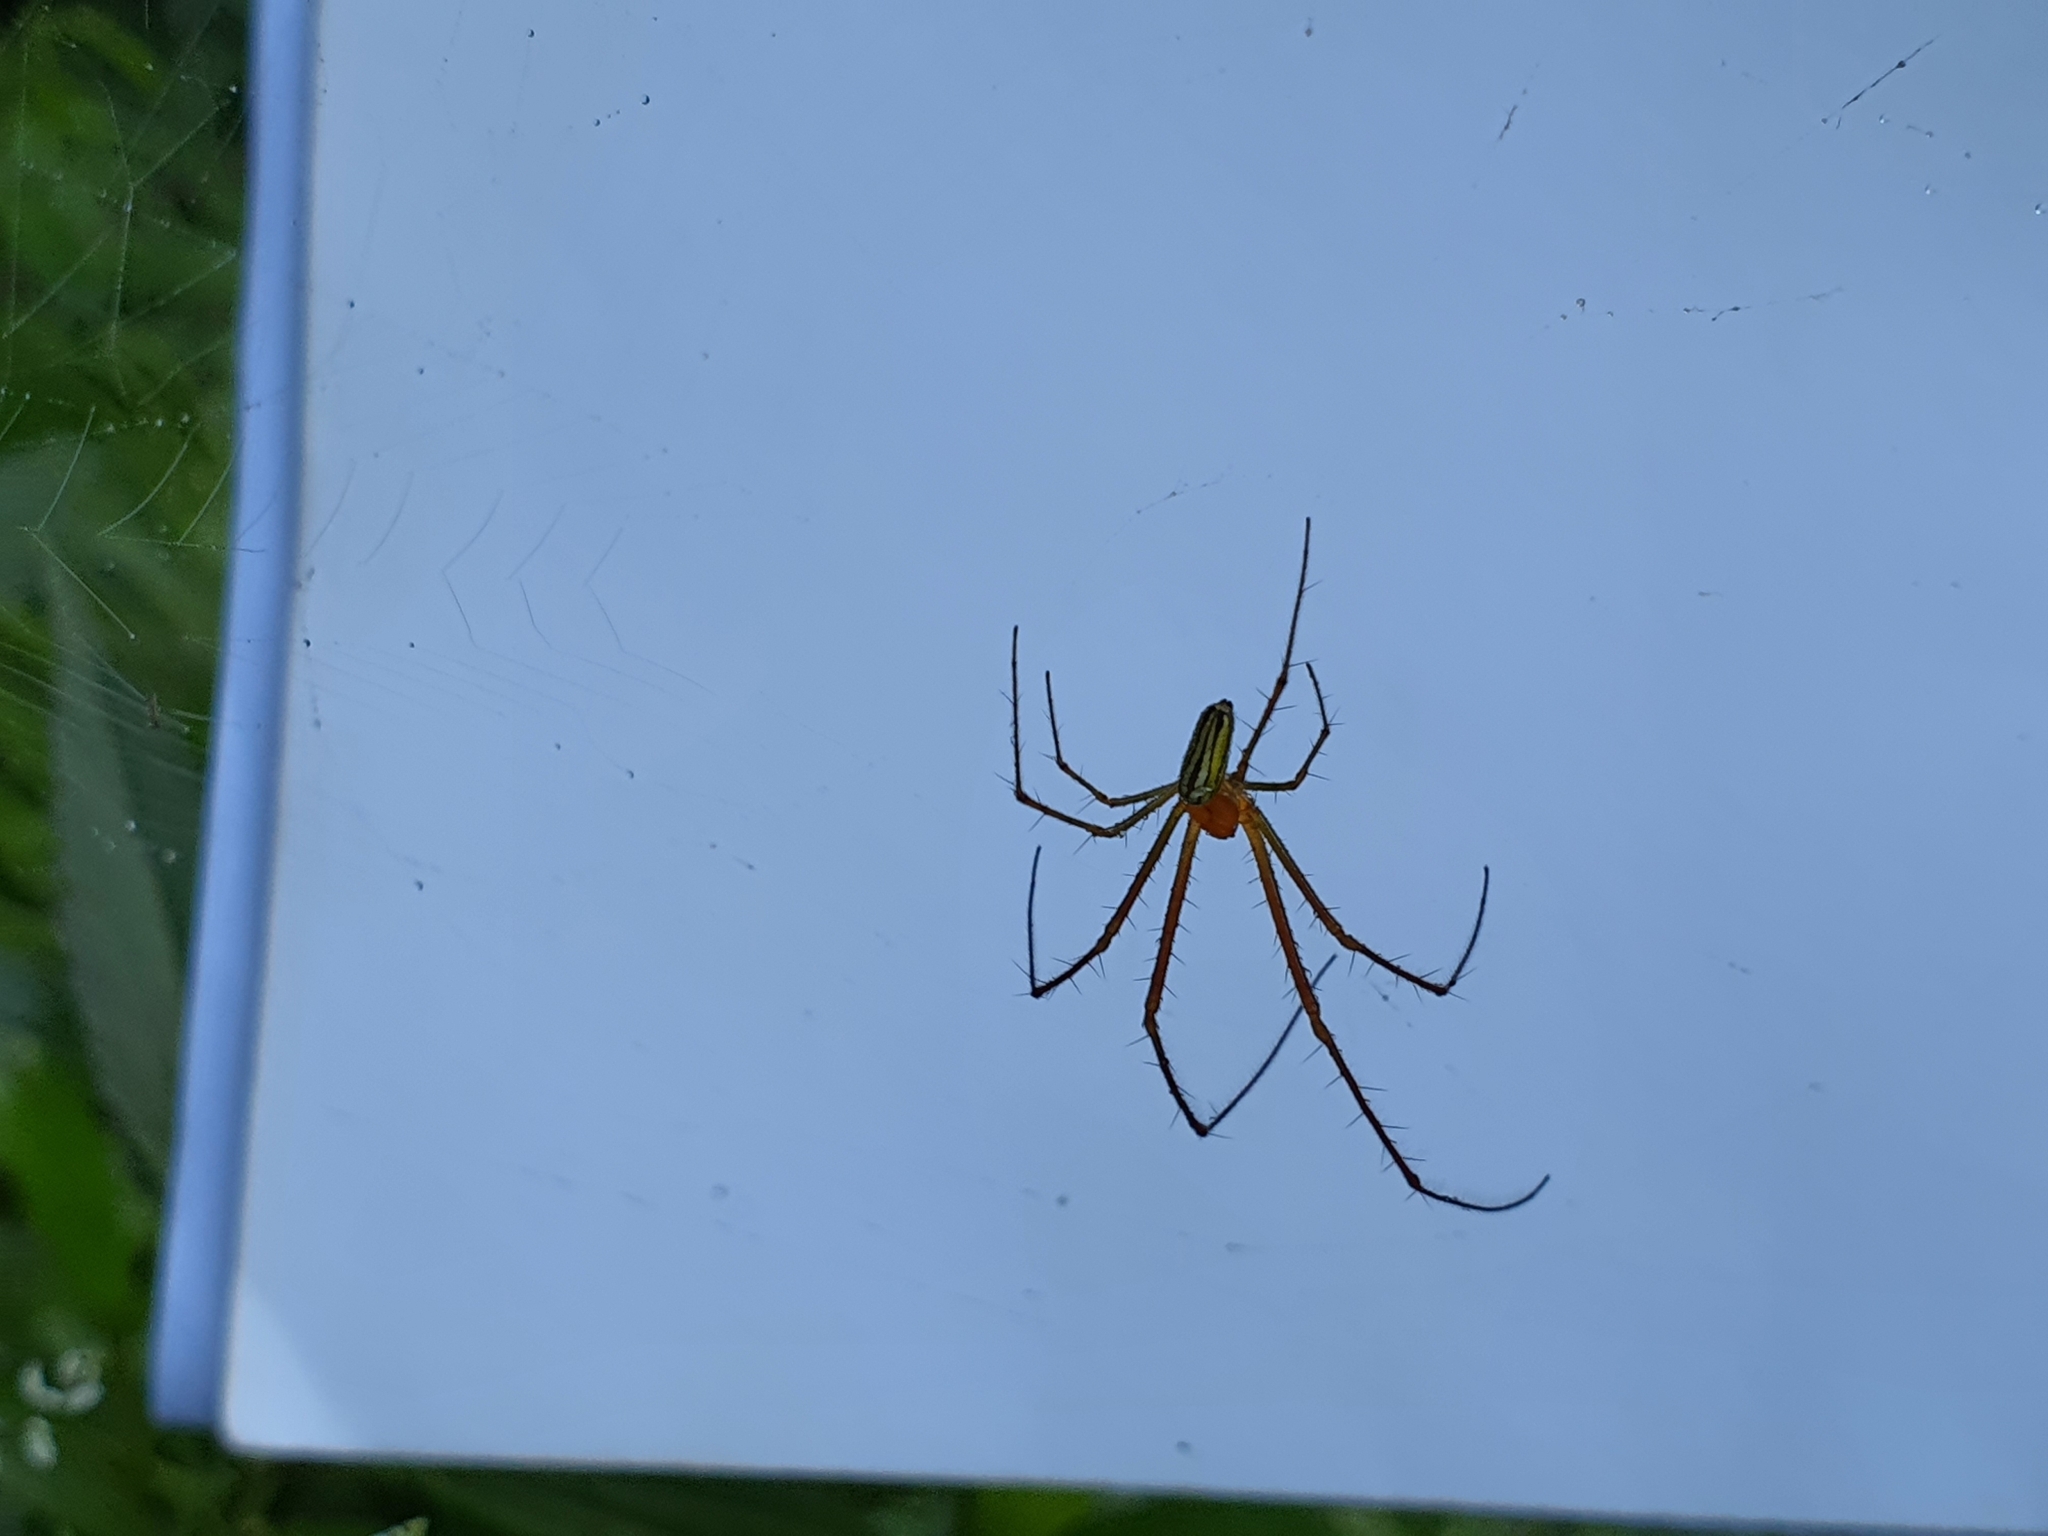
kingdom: Animalia
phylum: Arthropoda
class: Arachnida
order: Araneae
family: Tetragnathidae
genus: Leucauge
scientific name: Leucauge celebesiana
